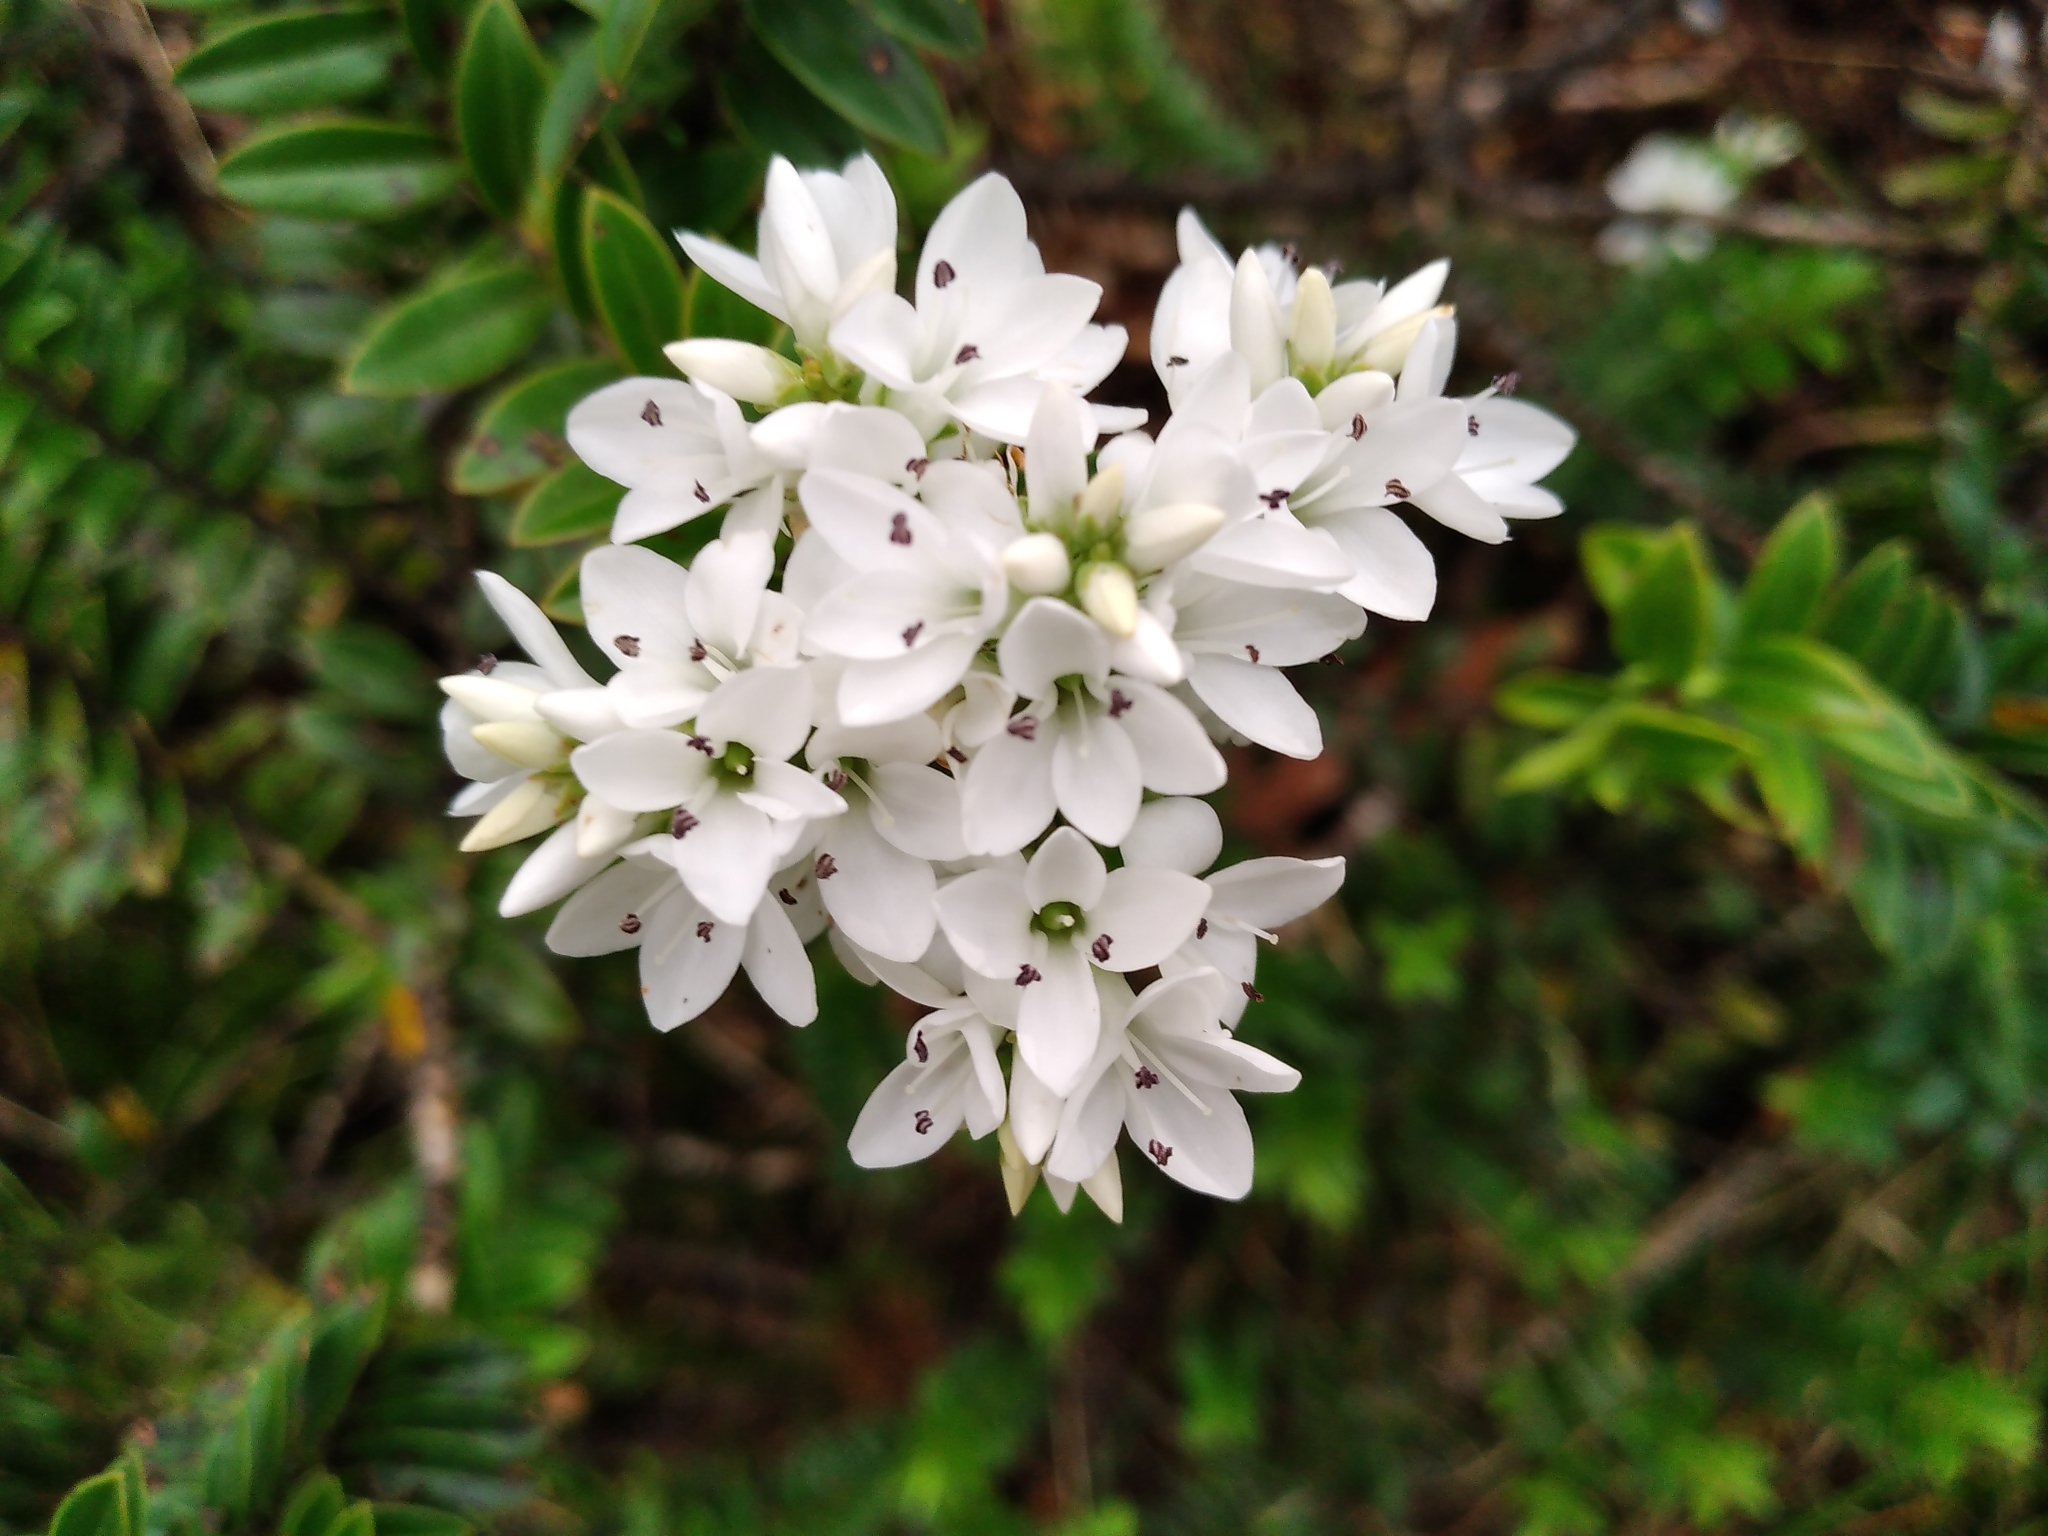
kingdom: Plantae
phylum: Tracheophyta
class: Magnoliopsida
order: Lamiales
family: Plantaginaceae
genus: Veronica
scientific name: Veronica canterburiensis
